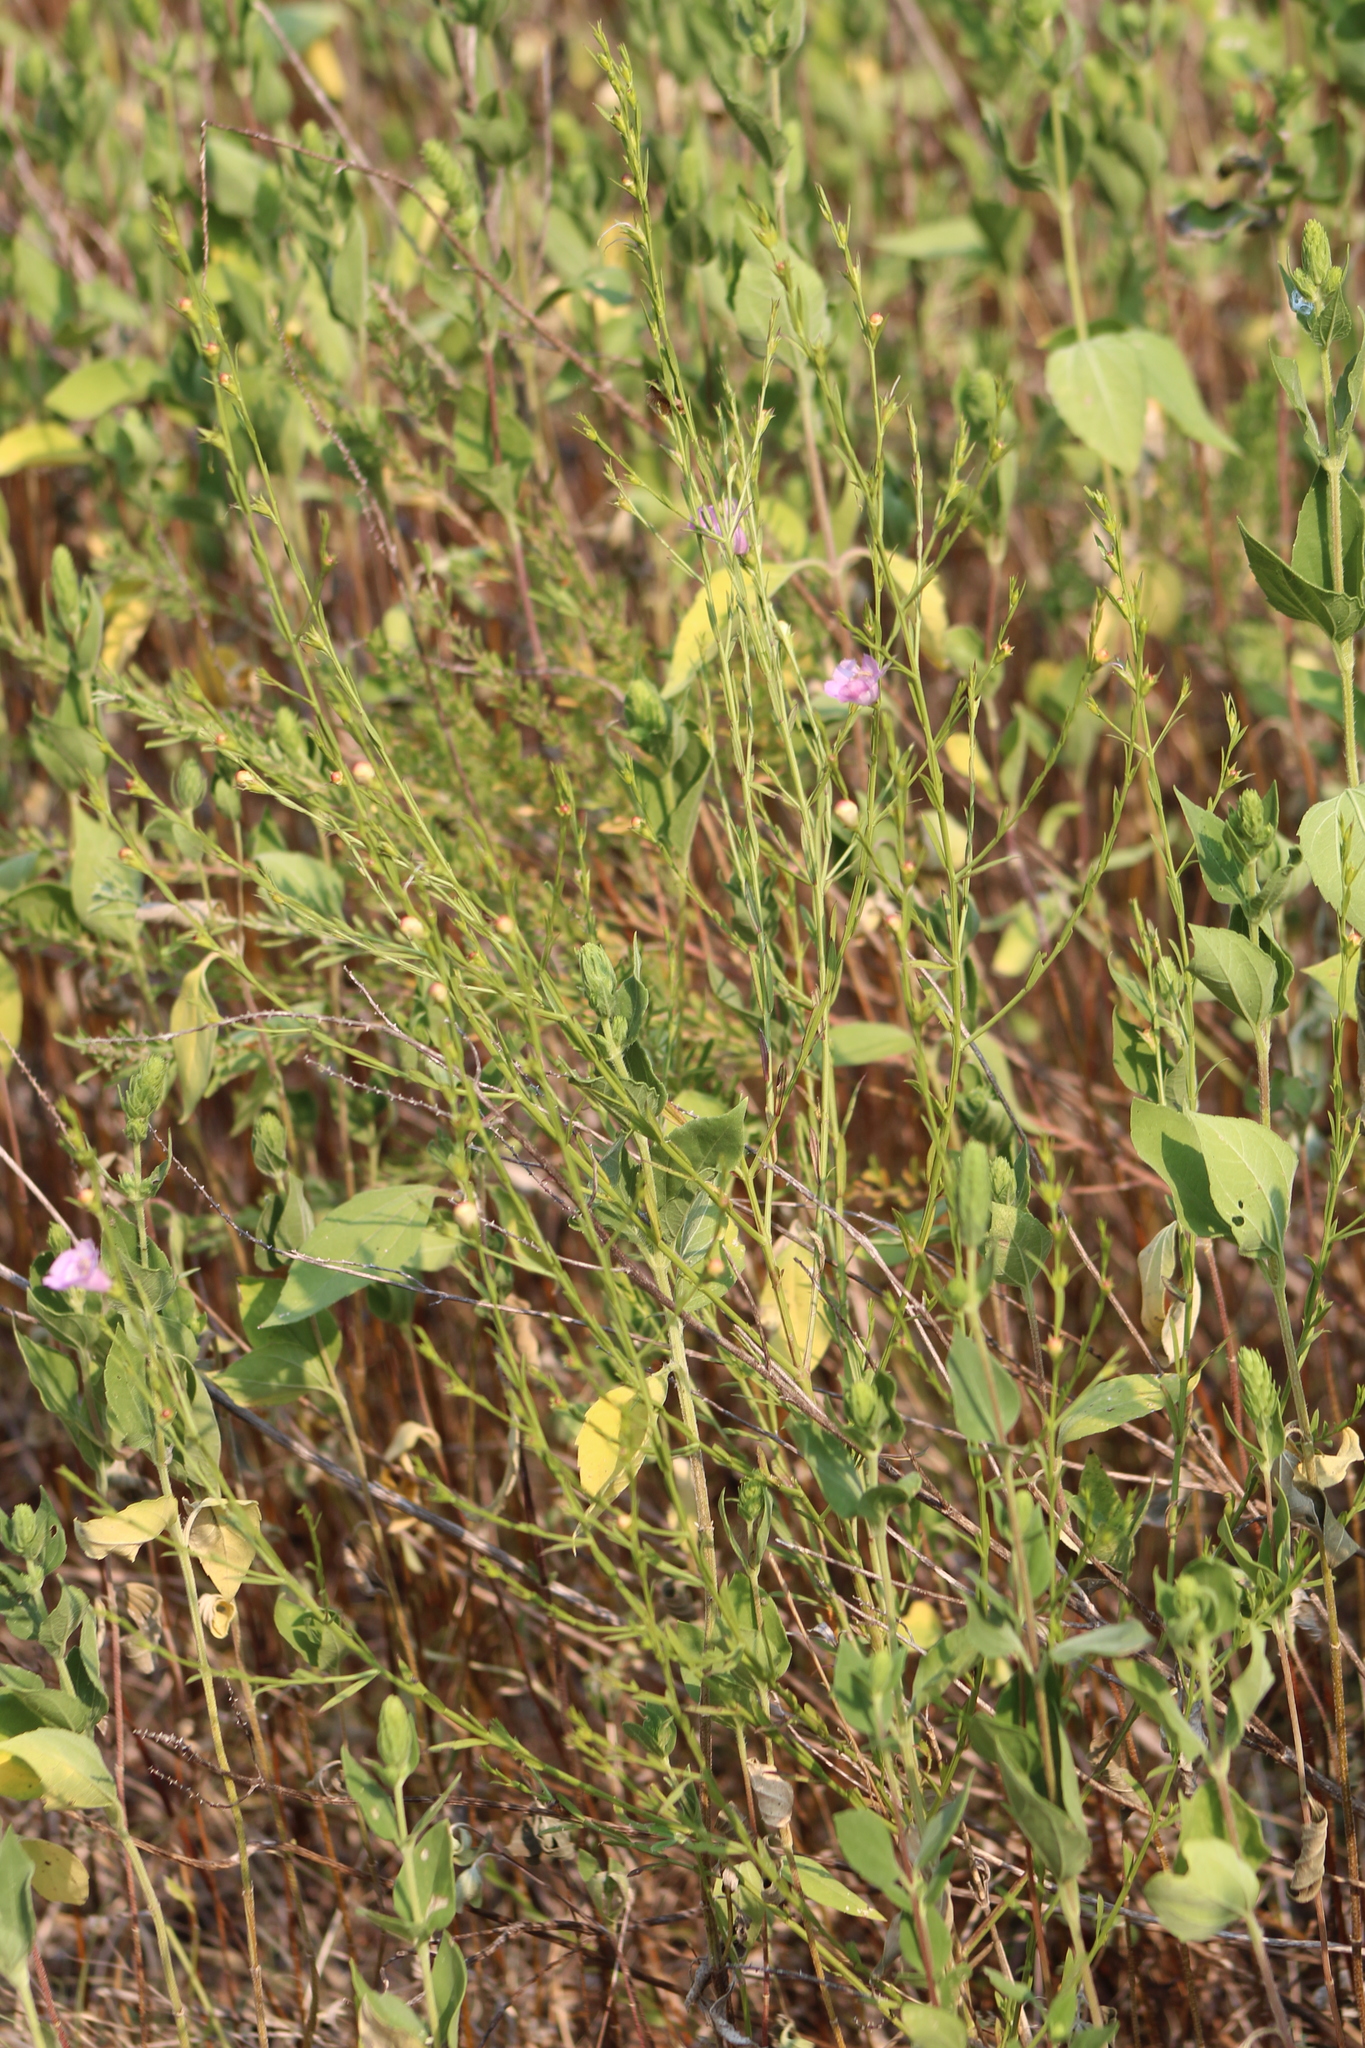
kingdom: Plantae
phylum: Tracheophyta
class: Magnoliopsida
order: Lamiales
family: Orobanchaceae
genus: Agalinis
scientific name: Agalinis heterophylla
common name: Prairie agalinis
